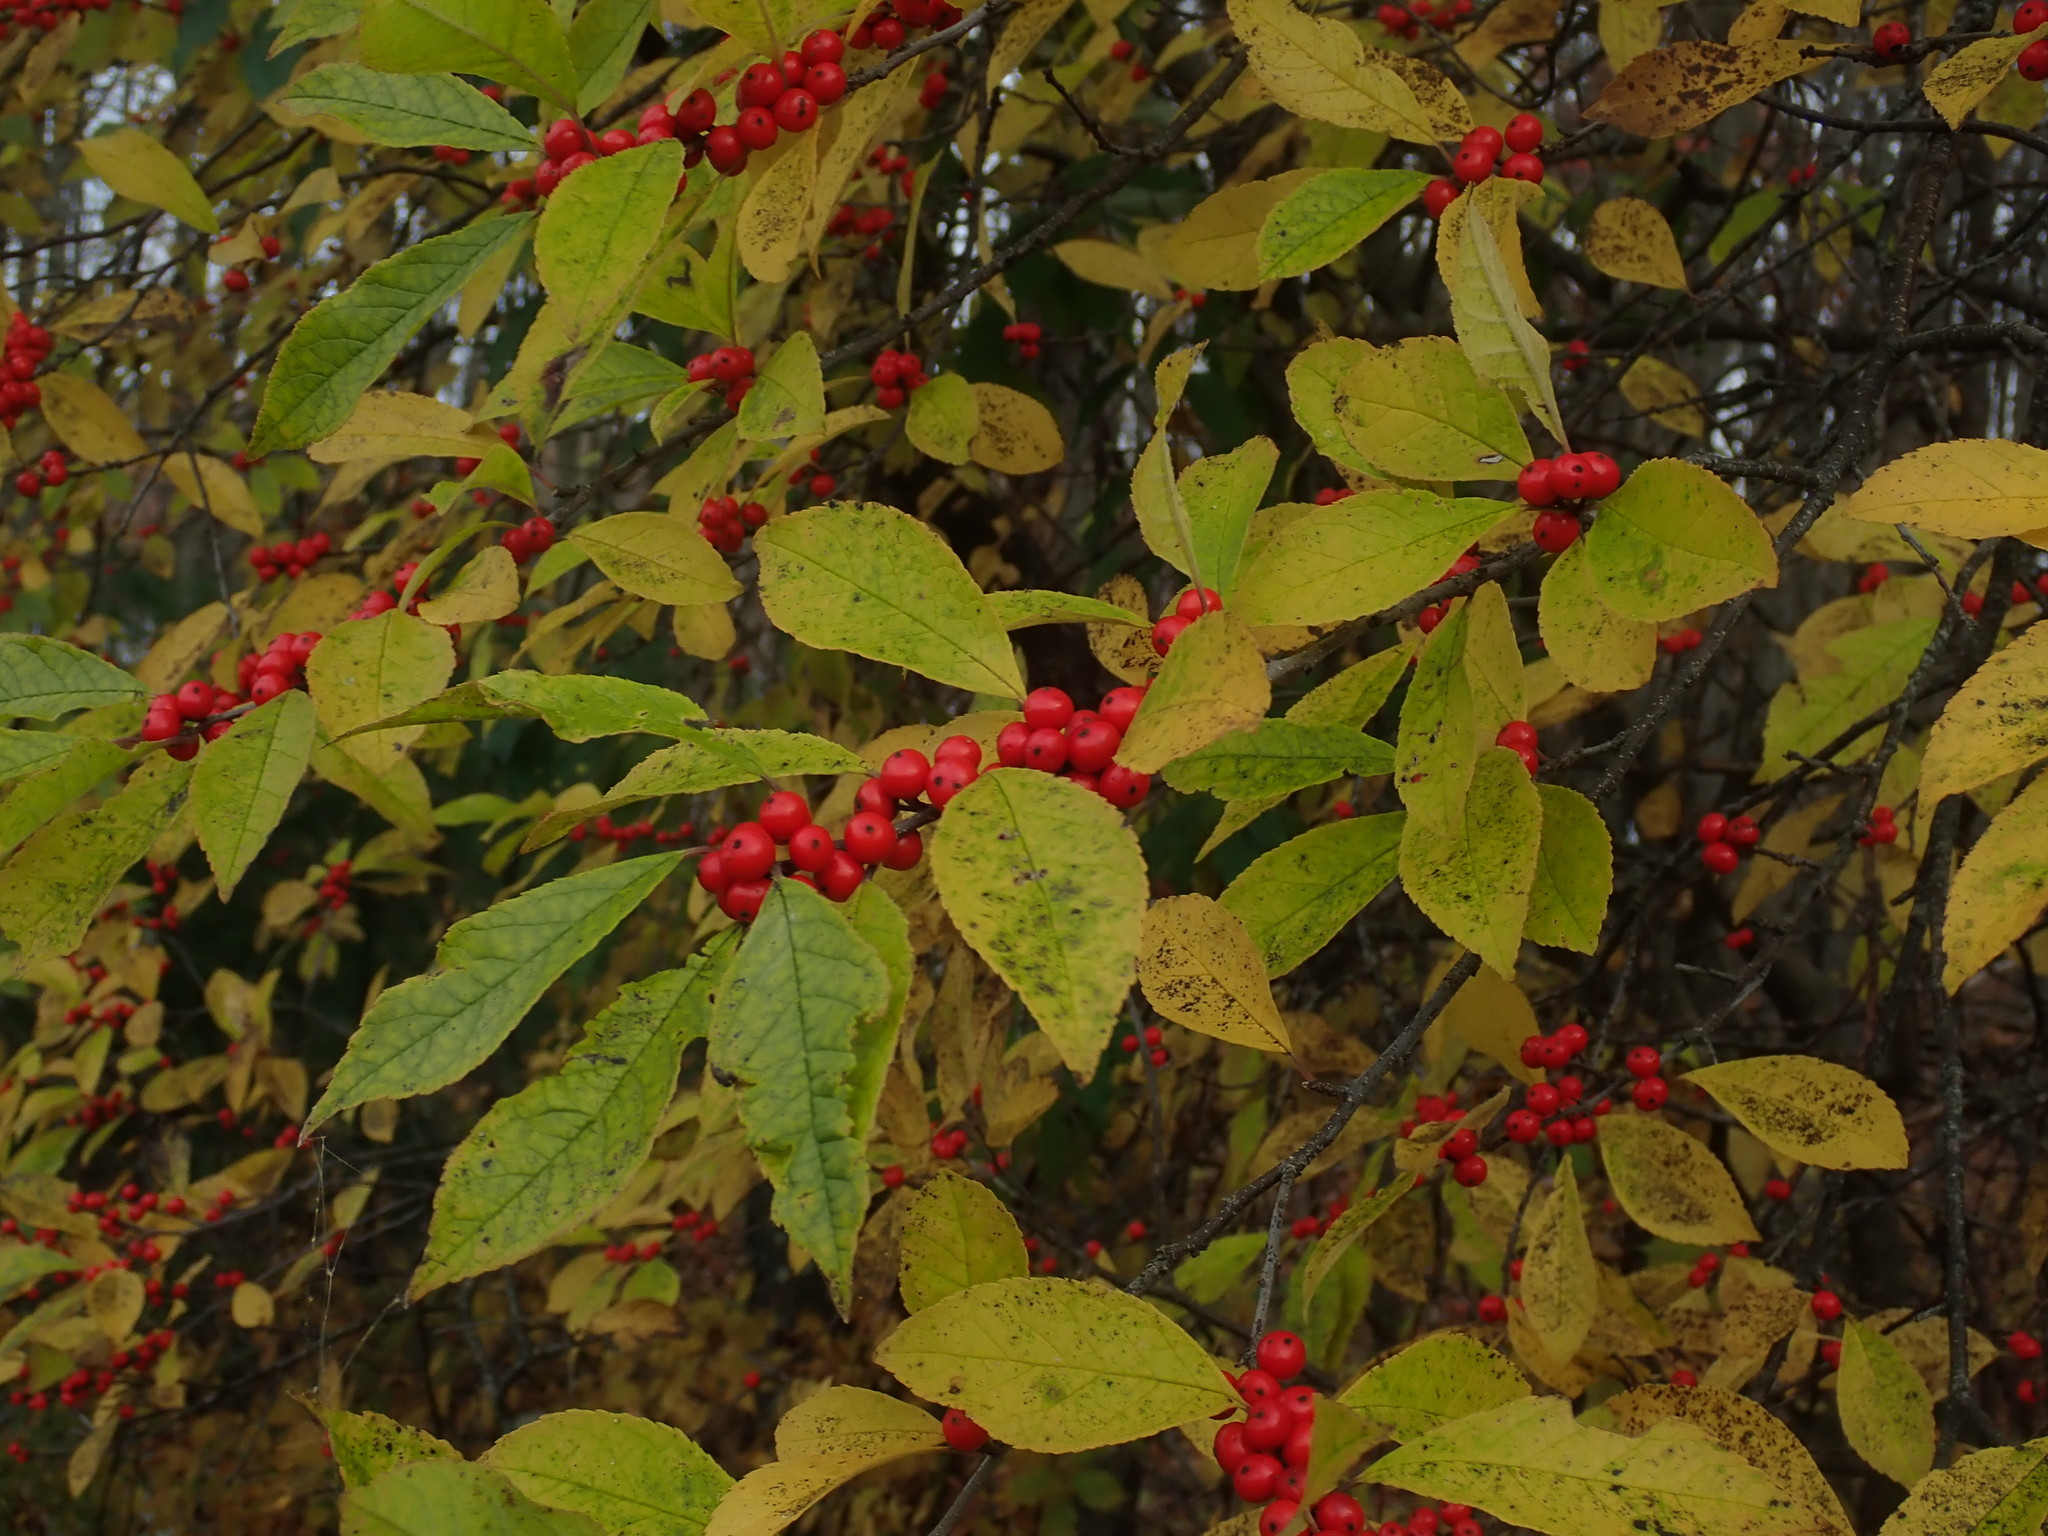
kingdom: Plantae
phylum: Tracheophyta
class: Magnoliopsida
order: Aquifoliales
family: Aquifoliaceae
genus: Ilex
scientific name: Ilex verticillata
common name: Virginia winterberry
